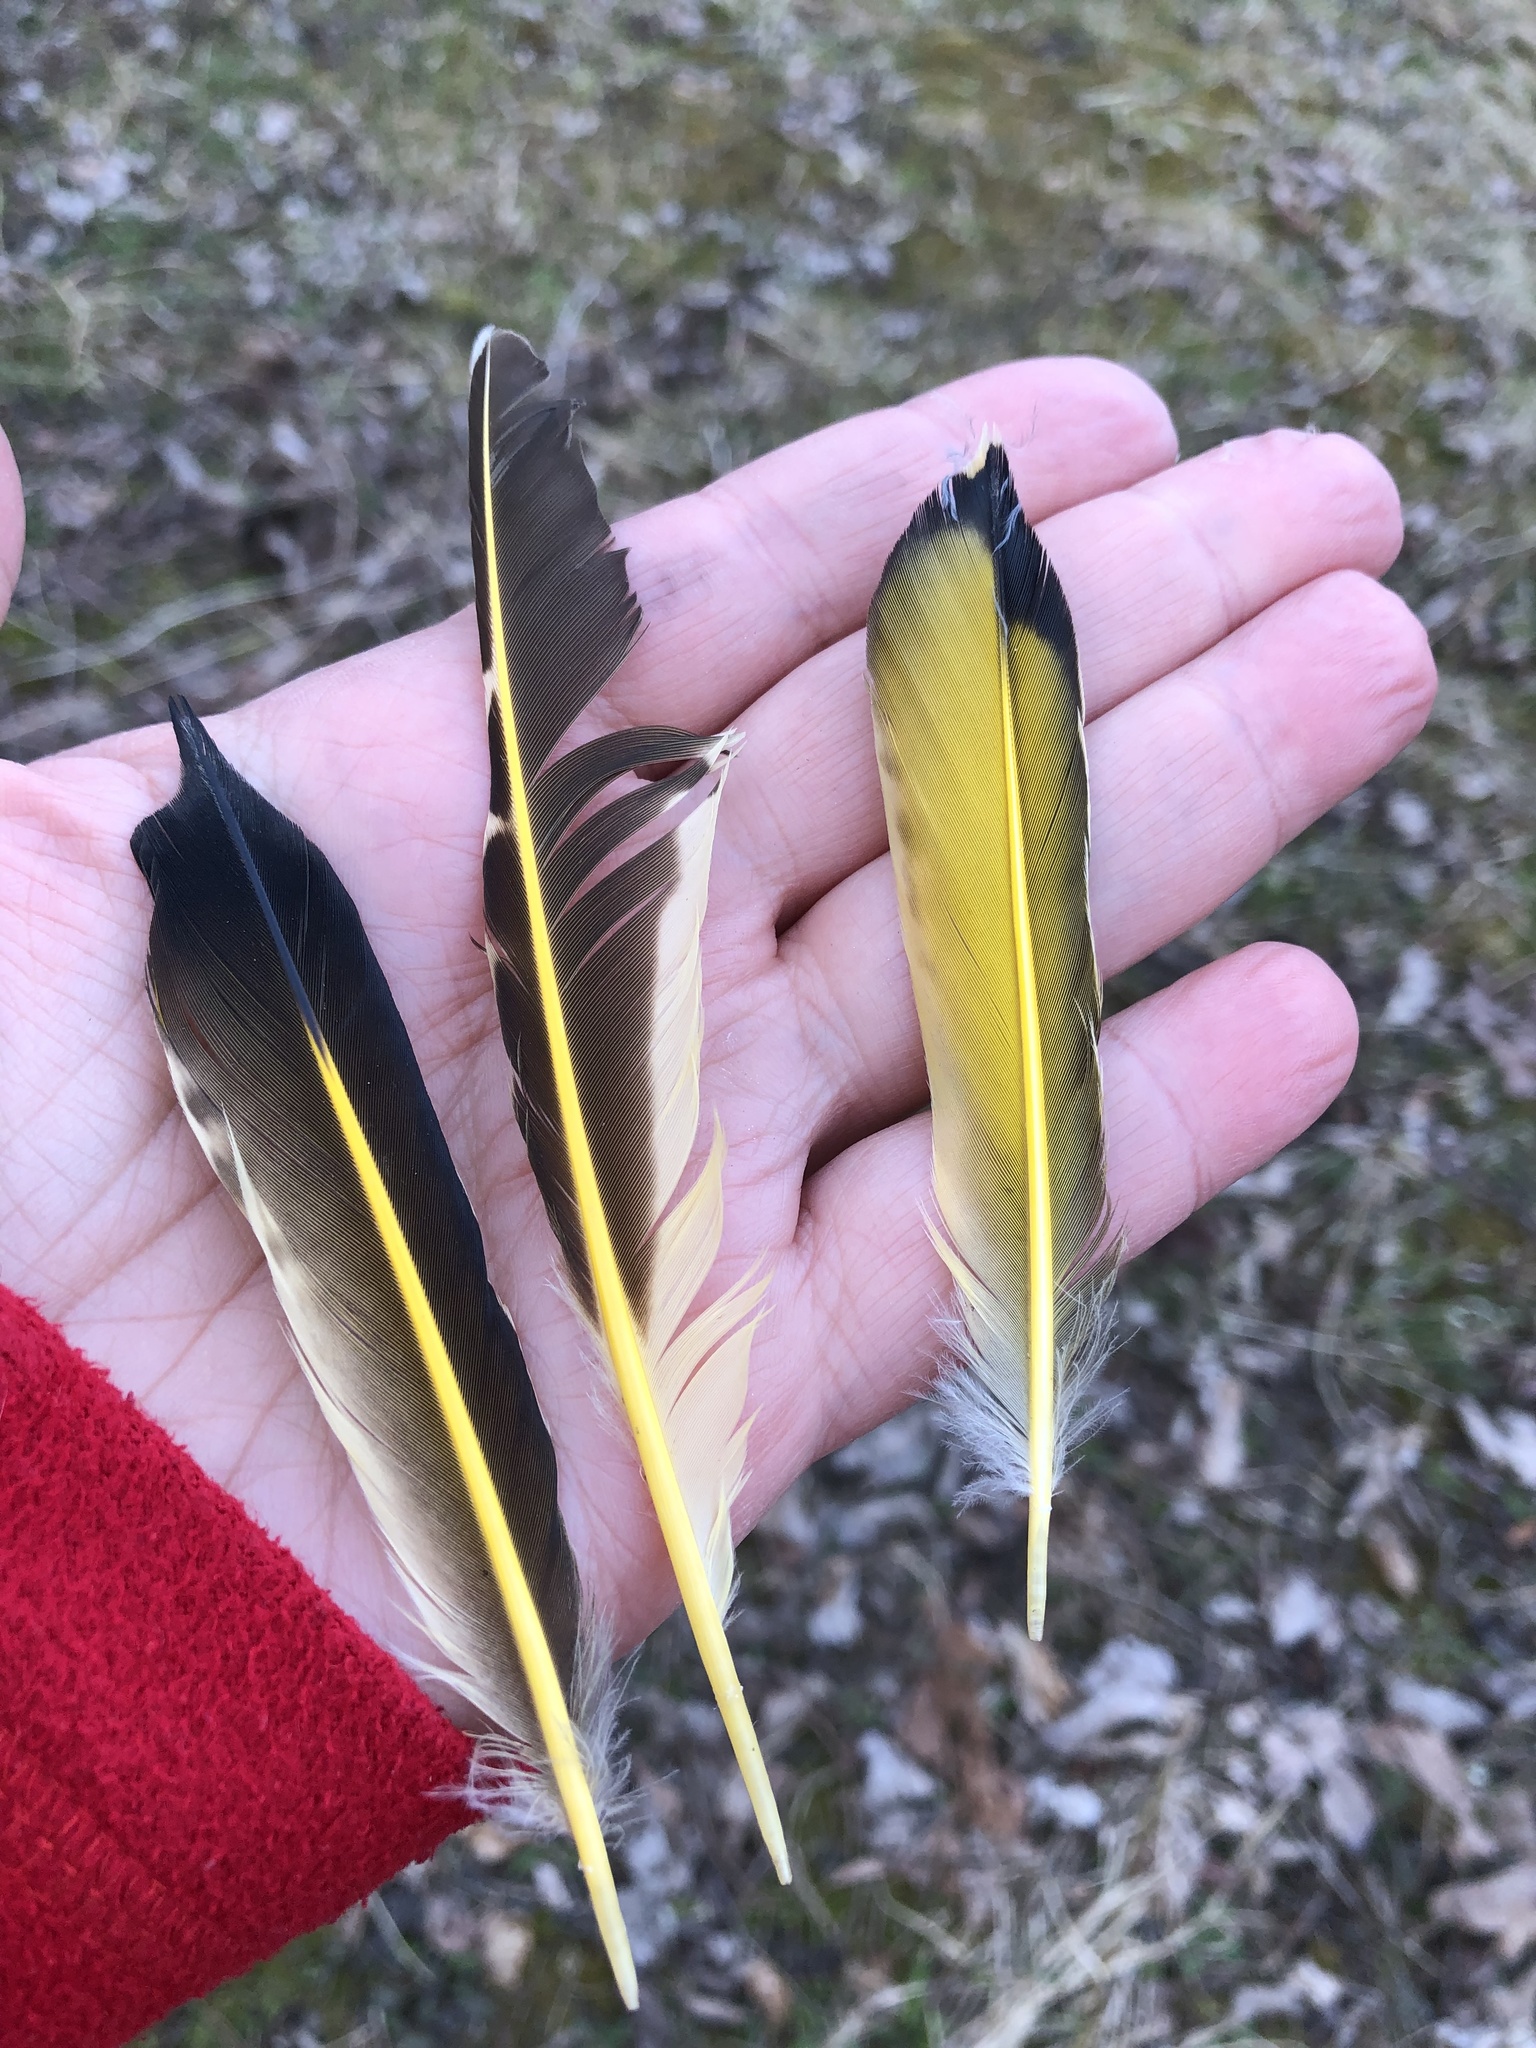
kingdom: Animalia
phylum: Chordata
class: Aves
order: Piciformes
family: Picidae
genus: Colaptes
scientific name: Colaptes auratus
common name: Northern flicker
